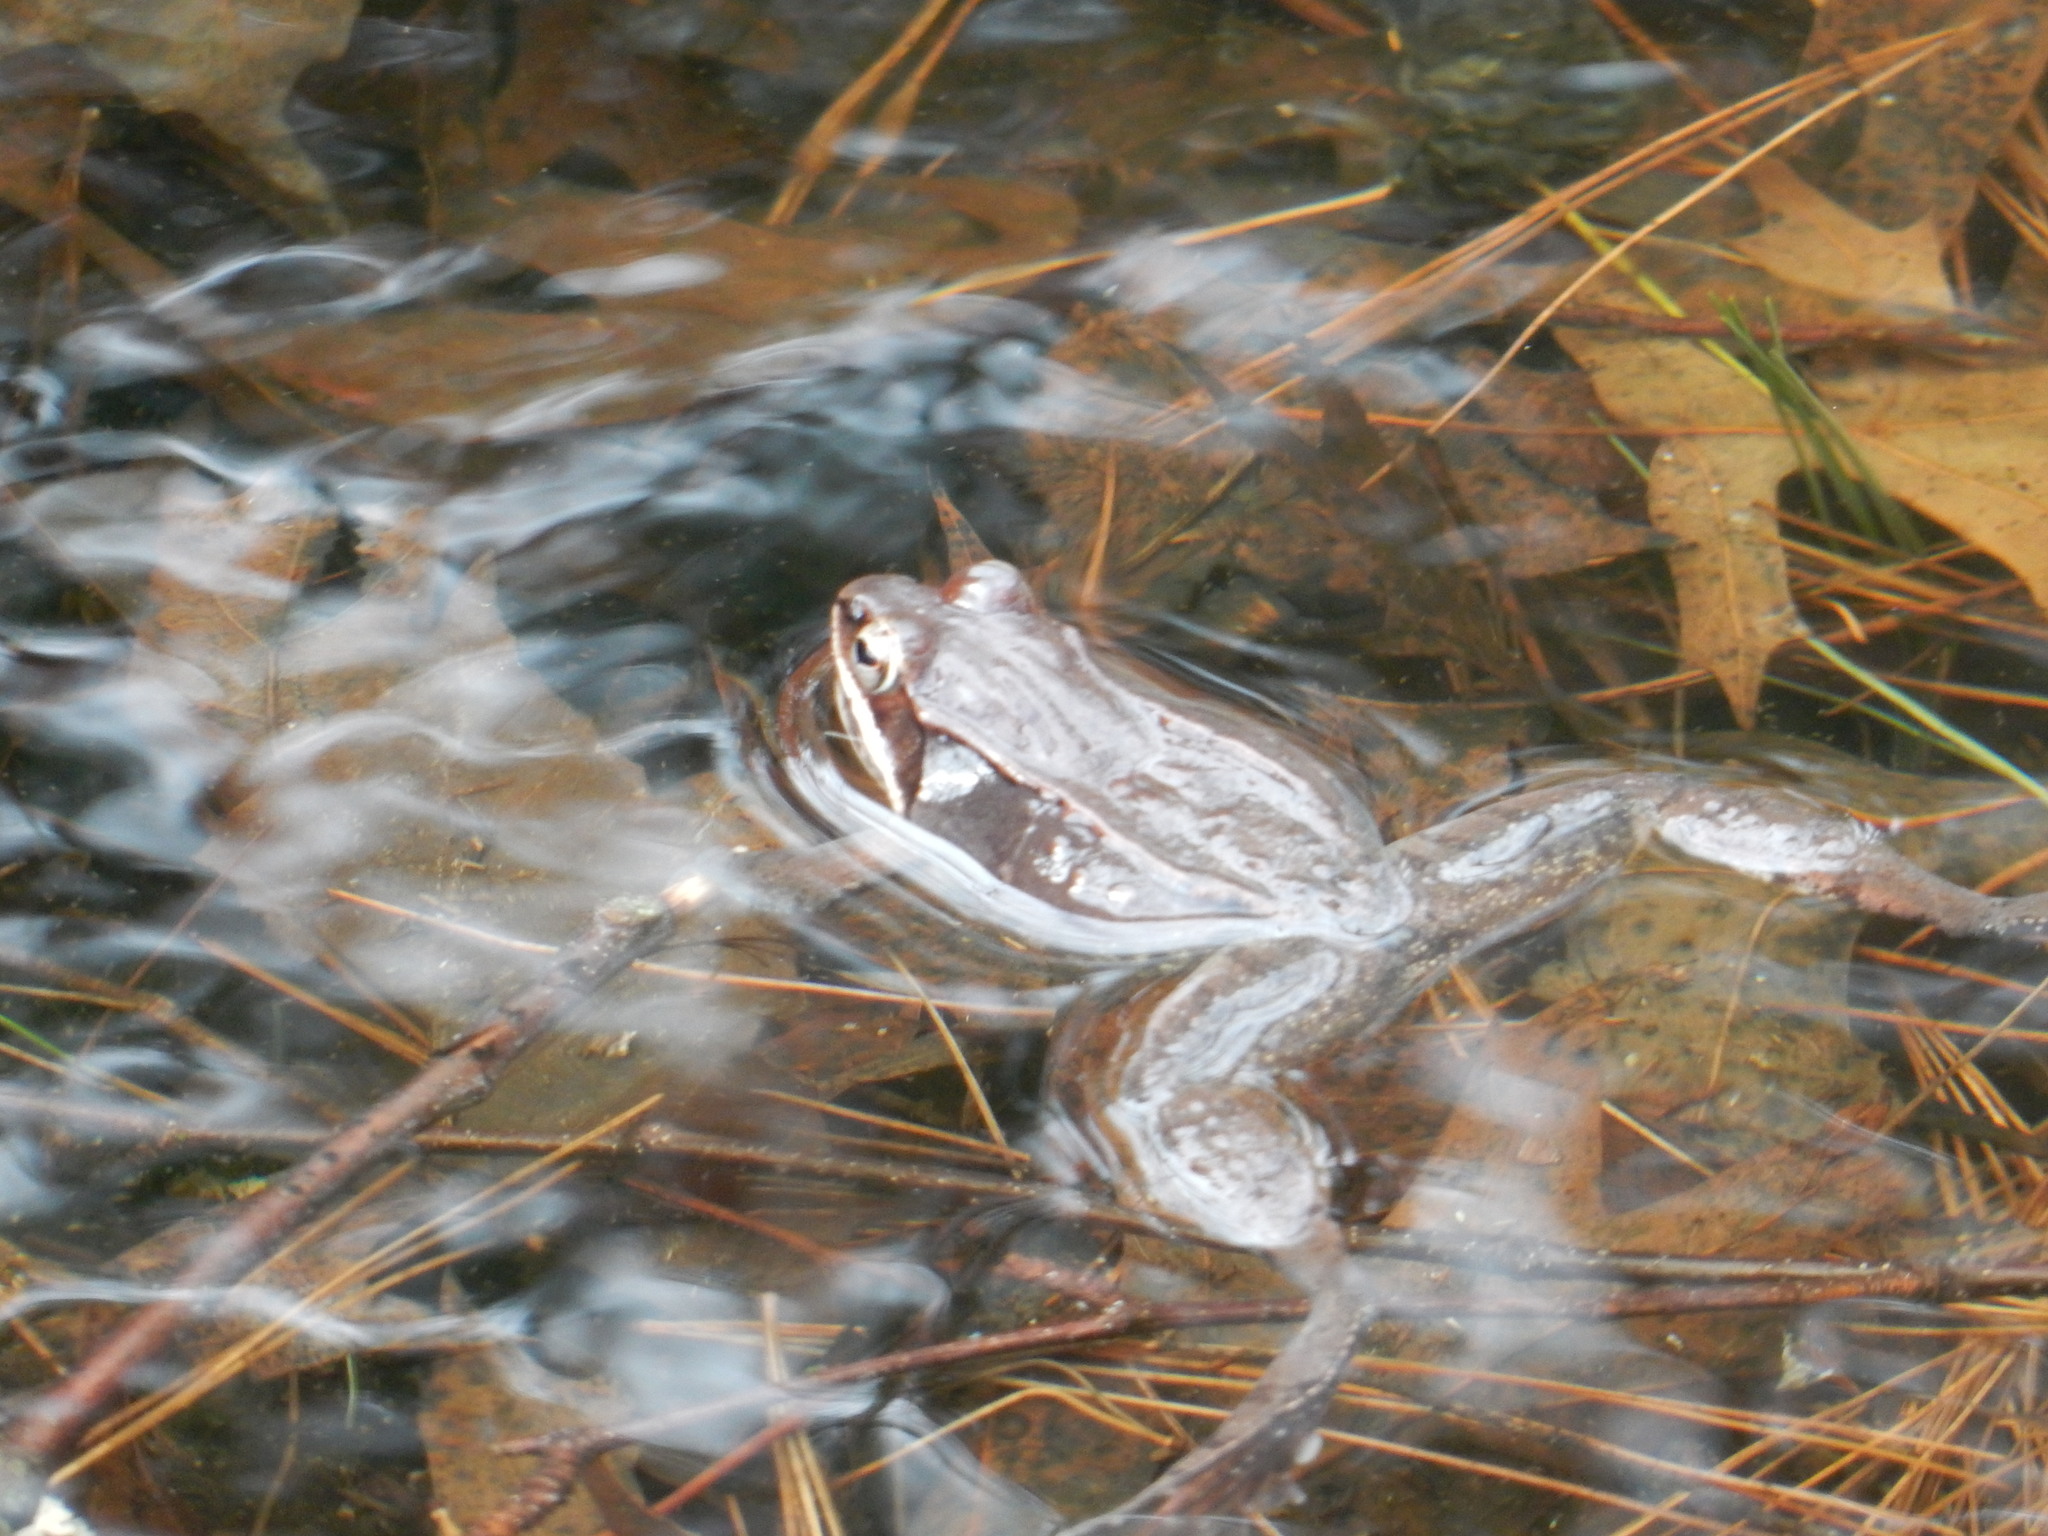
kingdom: Animalia
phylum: Chordata
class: Amphibia
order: Anura
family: Ranidae
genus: Lithobates
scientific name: Lithobates sylvaticus
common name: Wood frog
